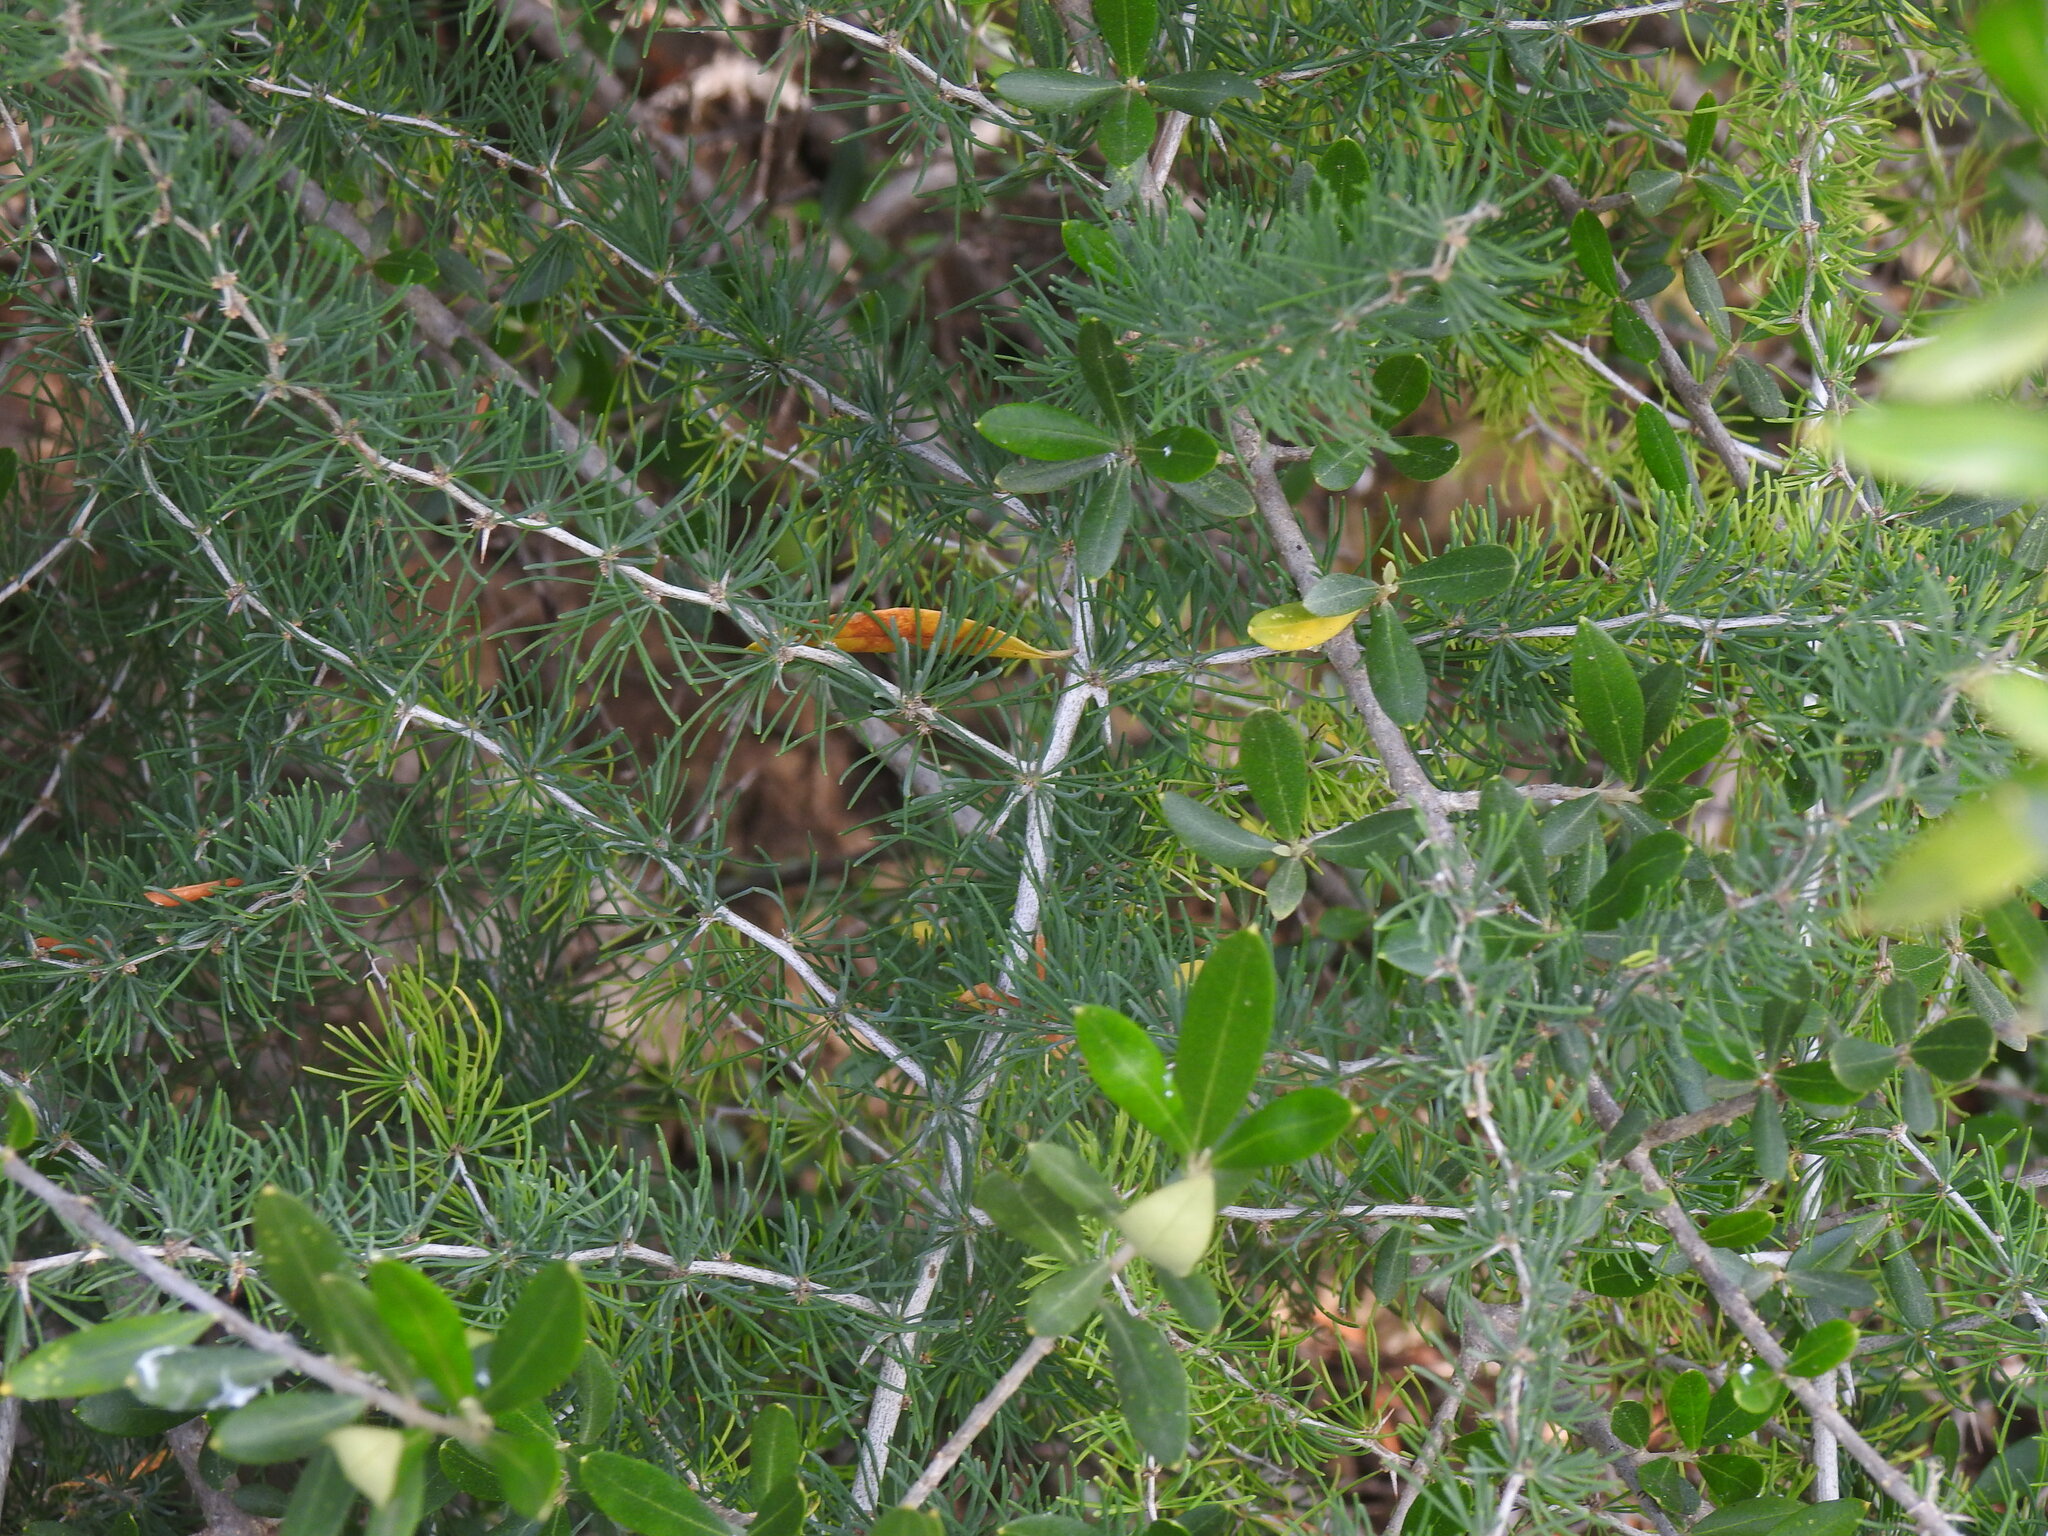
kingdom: Plantae
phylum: Tracheophyta
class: Liliopsida
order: Asparagales
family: Asparagaceae
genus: Asparagus
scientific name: Asparagus albus
